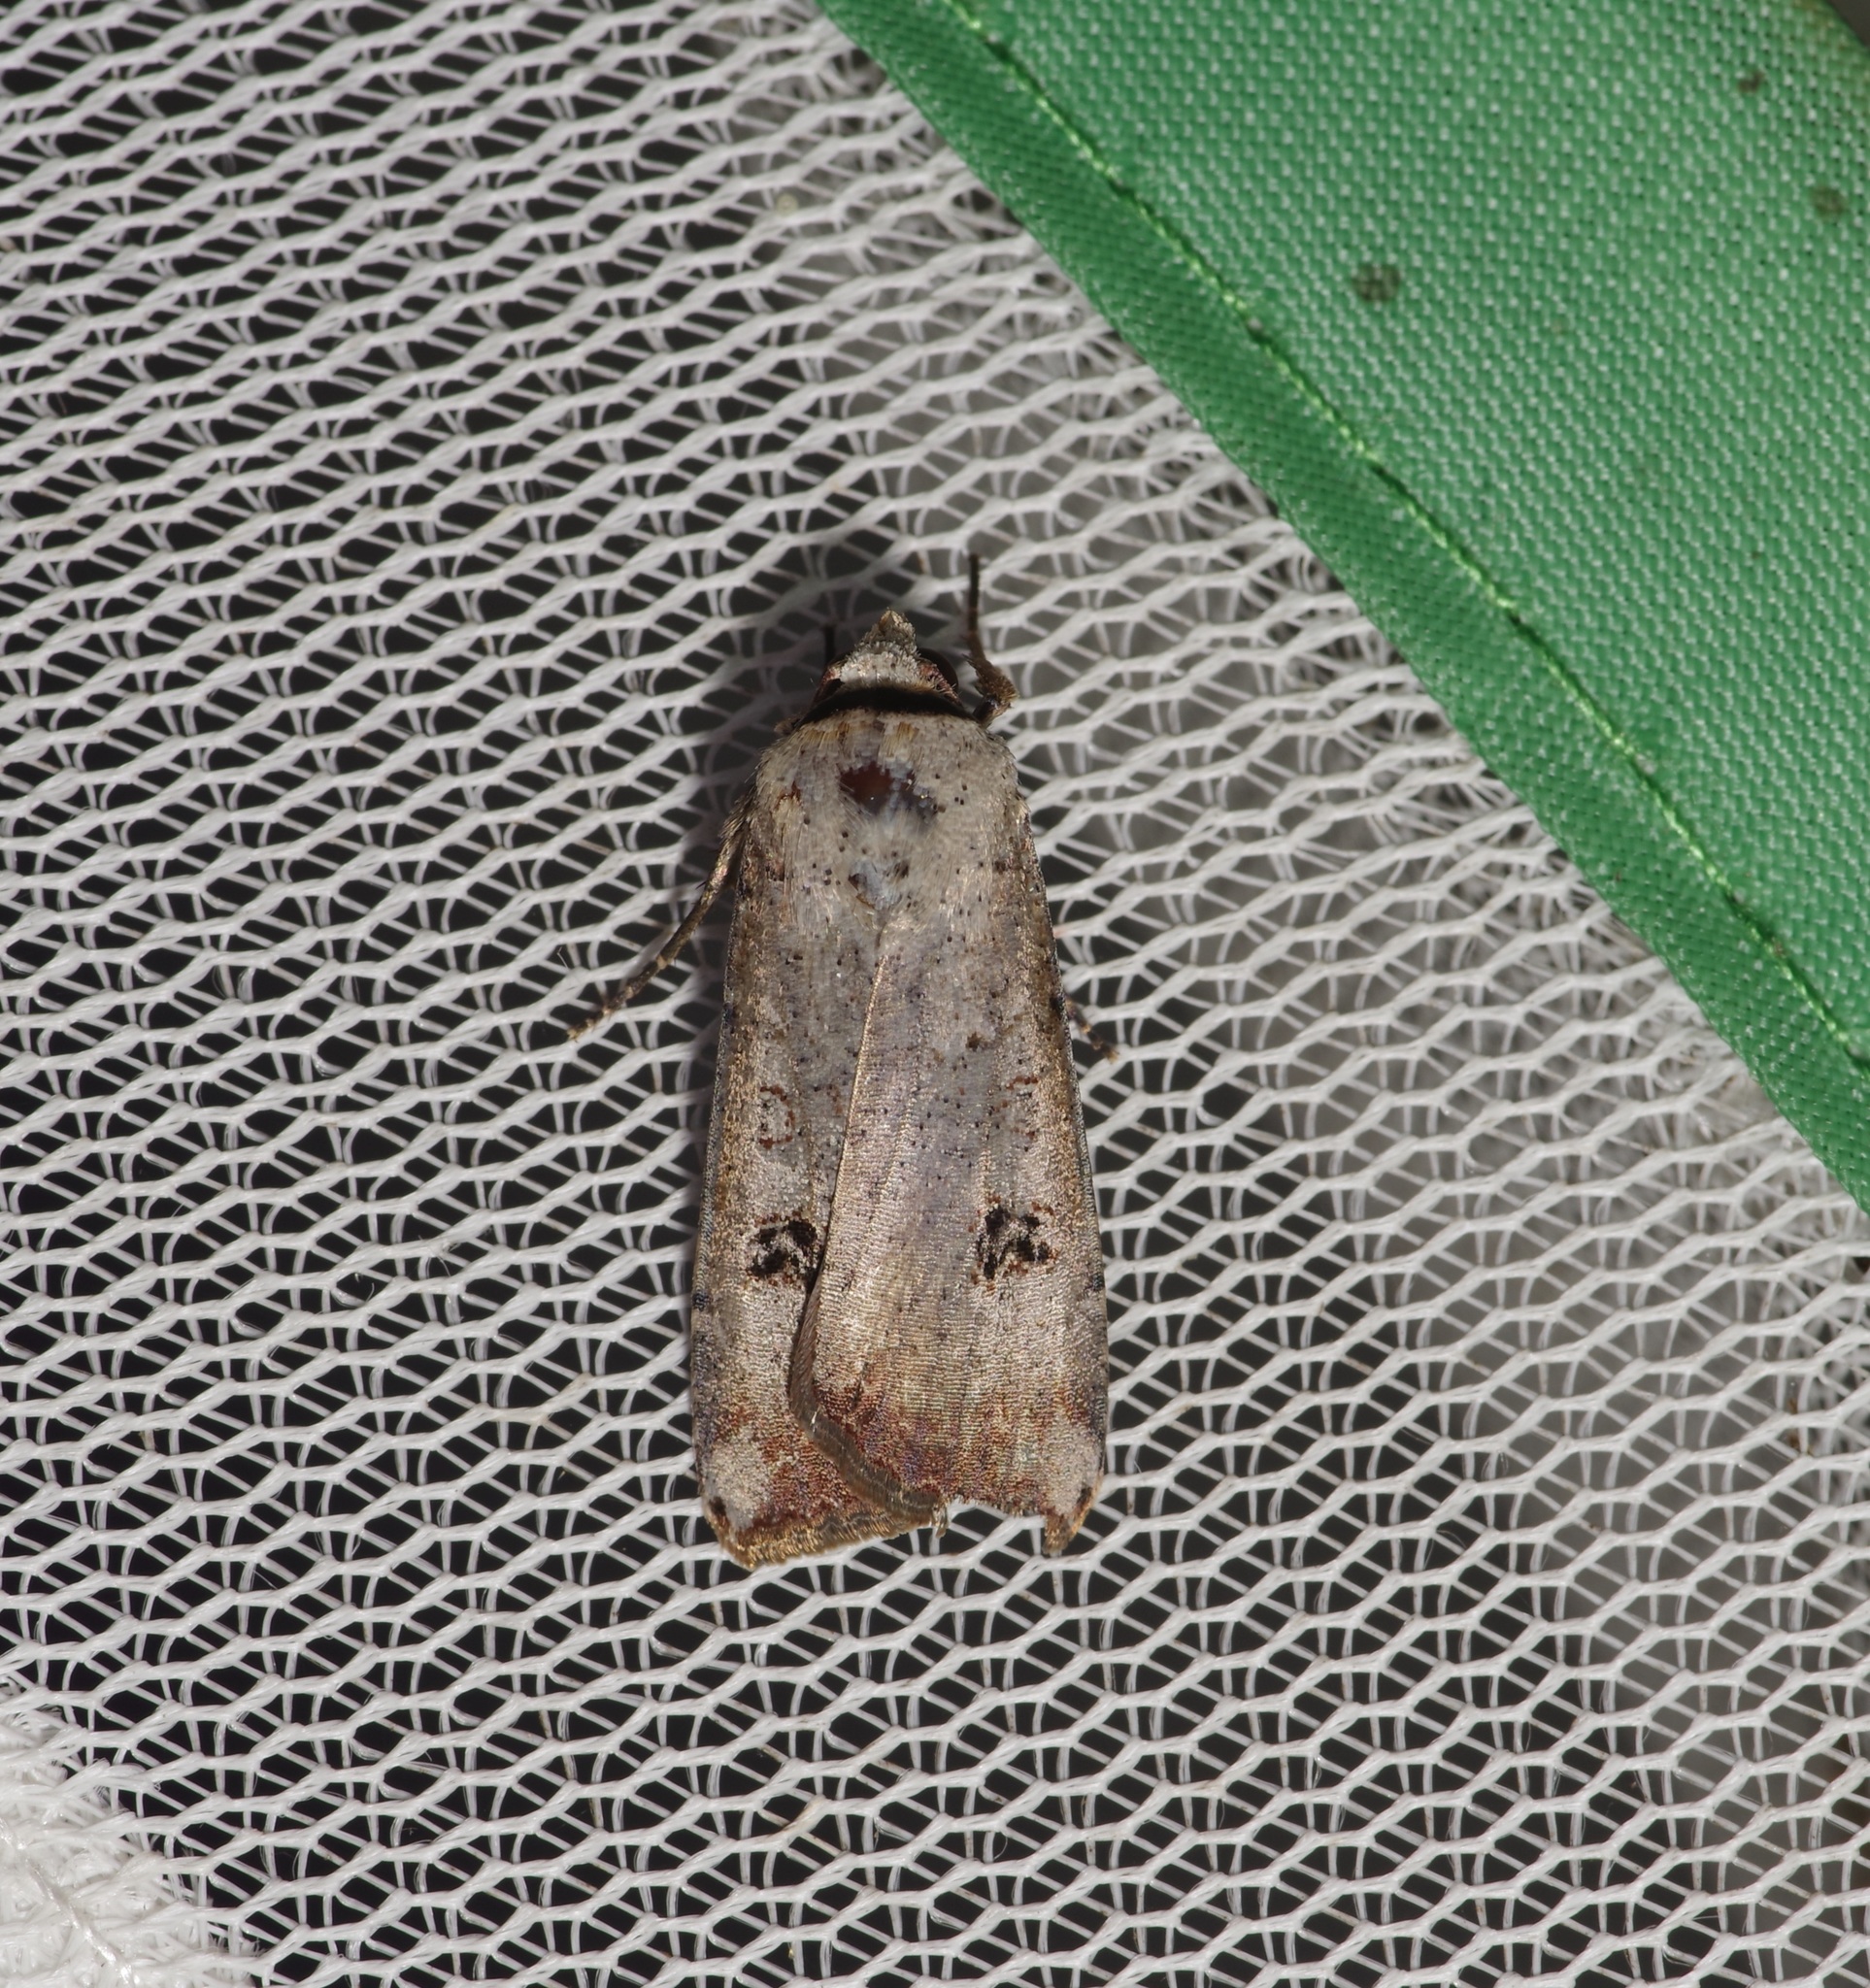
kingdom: Animalia
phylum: Arthropoda
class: Insecta
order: Lepidoptera
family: Noctuidae
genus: Anicla
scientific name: Anicla infecta
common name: Green cutworm
